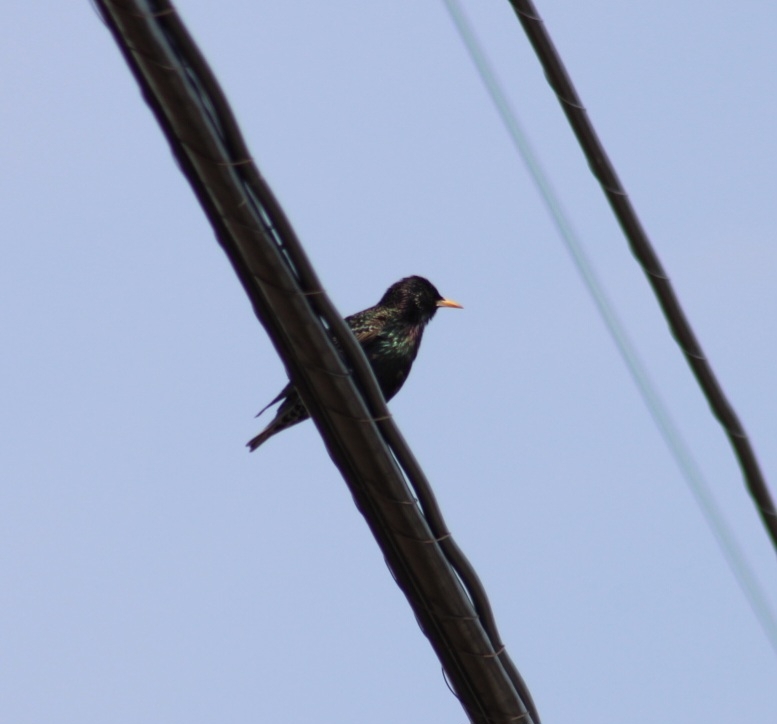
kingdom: Animalia
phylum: Chordata
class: Aves
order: Passeriformes
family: Sturnidae
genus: Sturnus
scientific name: Sturnus vulgaris
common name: Common starling
